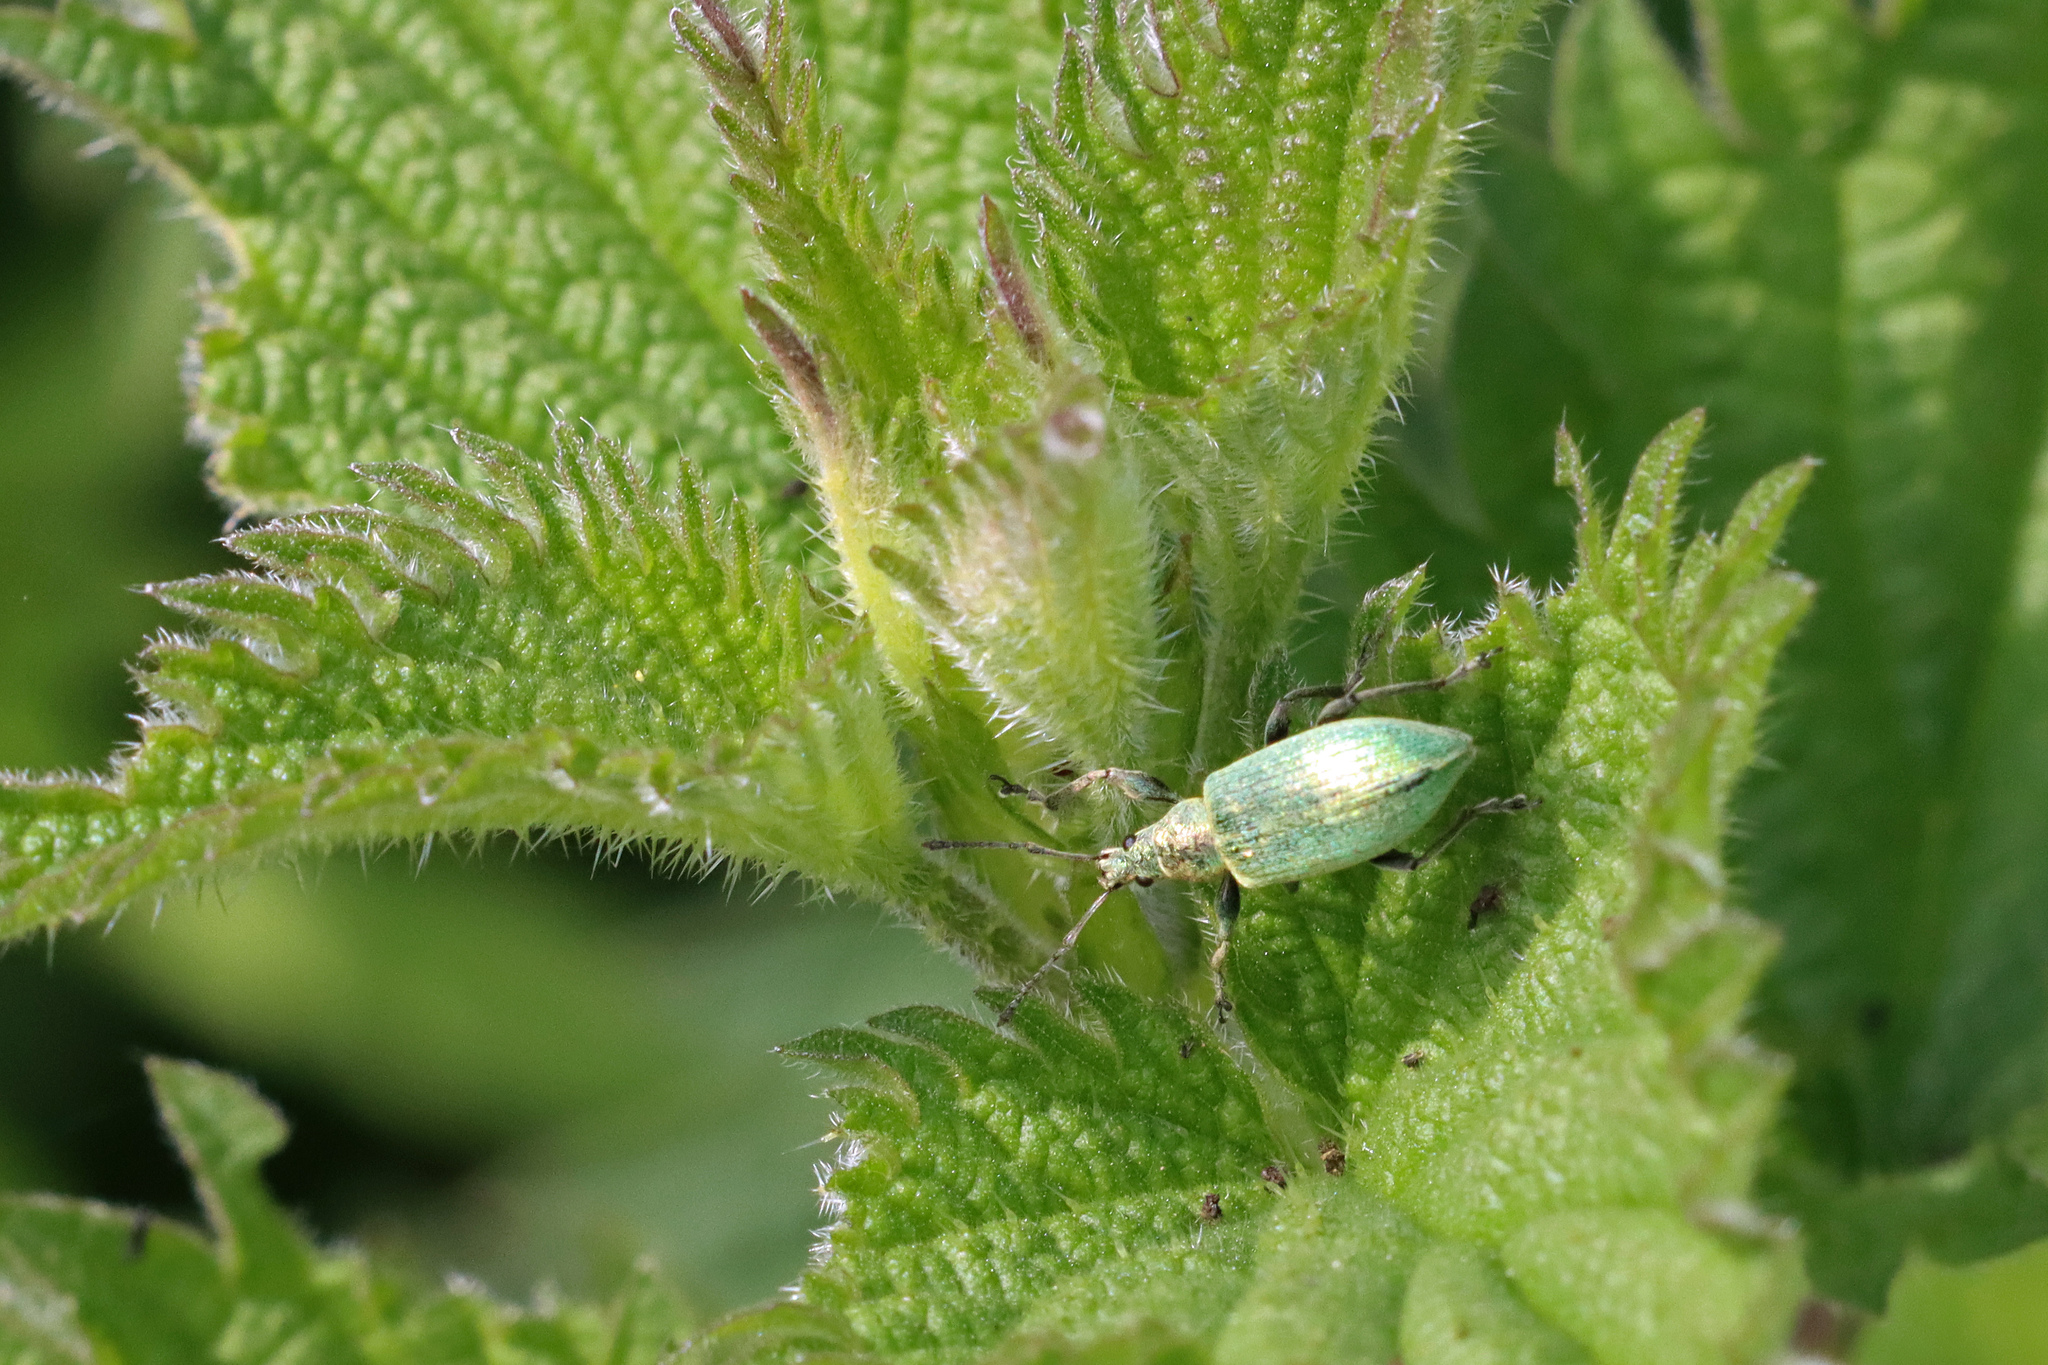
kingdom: Animalia
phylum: Arthropoda
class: Insecta
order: Coleoptera
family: Curculionidae
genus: Phyllobius
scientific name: Phyllobius pomaceus
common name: Green nettle weevil
